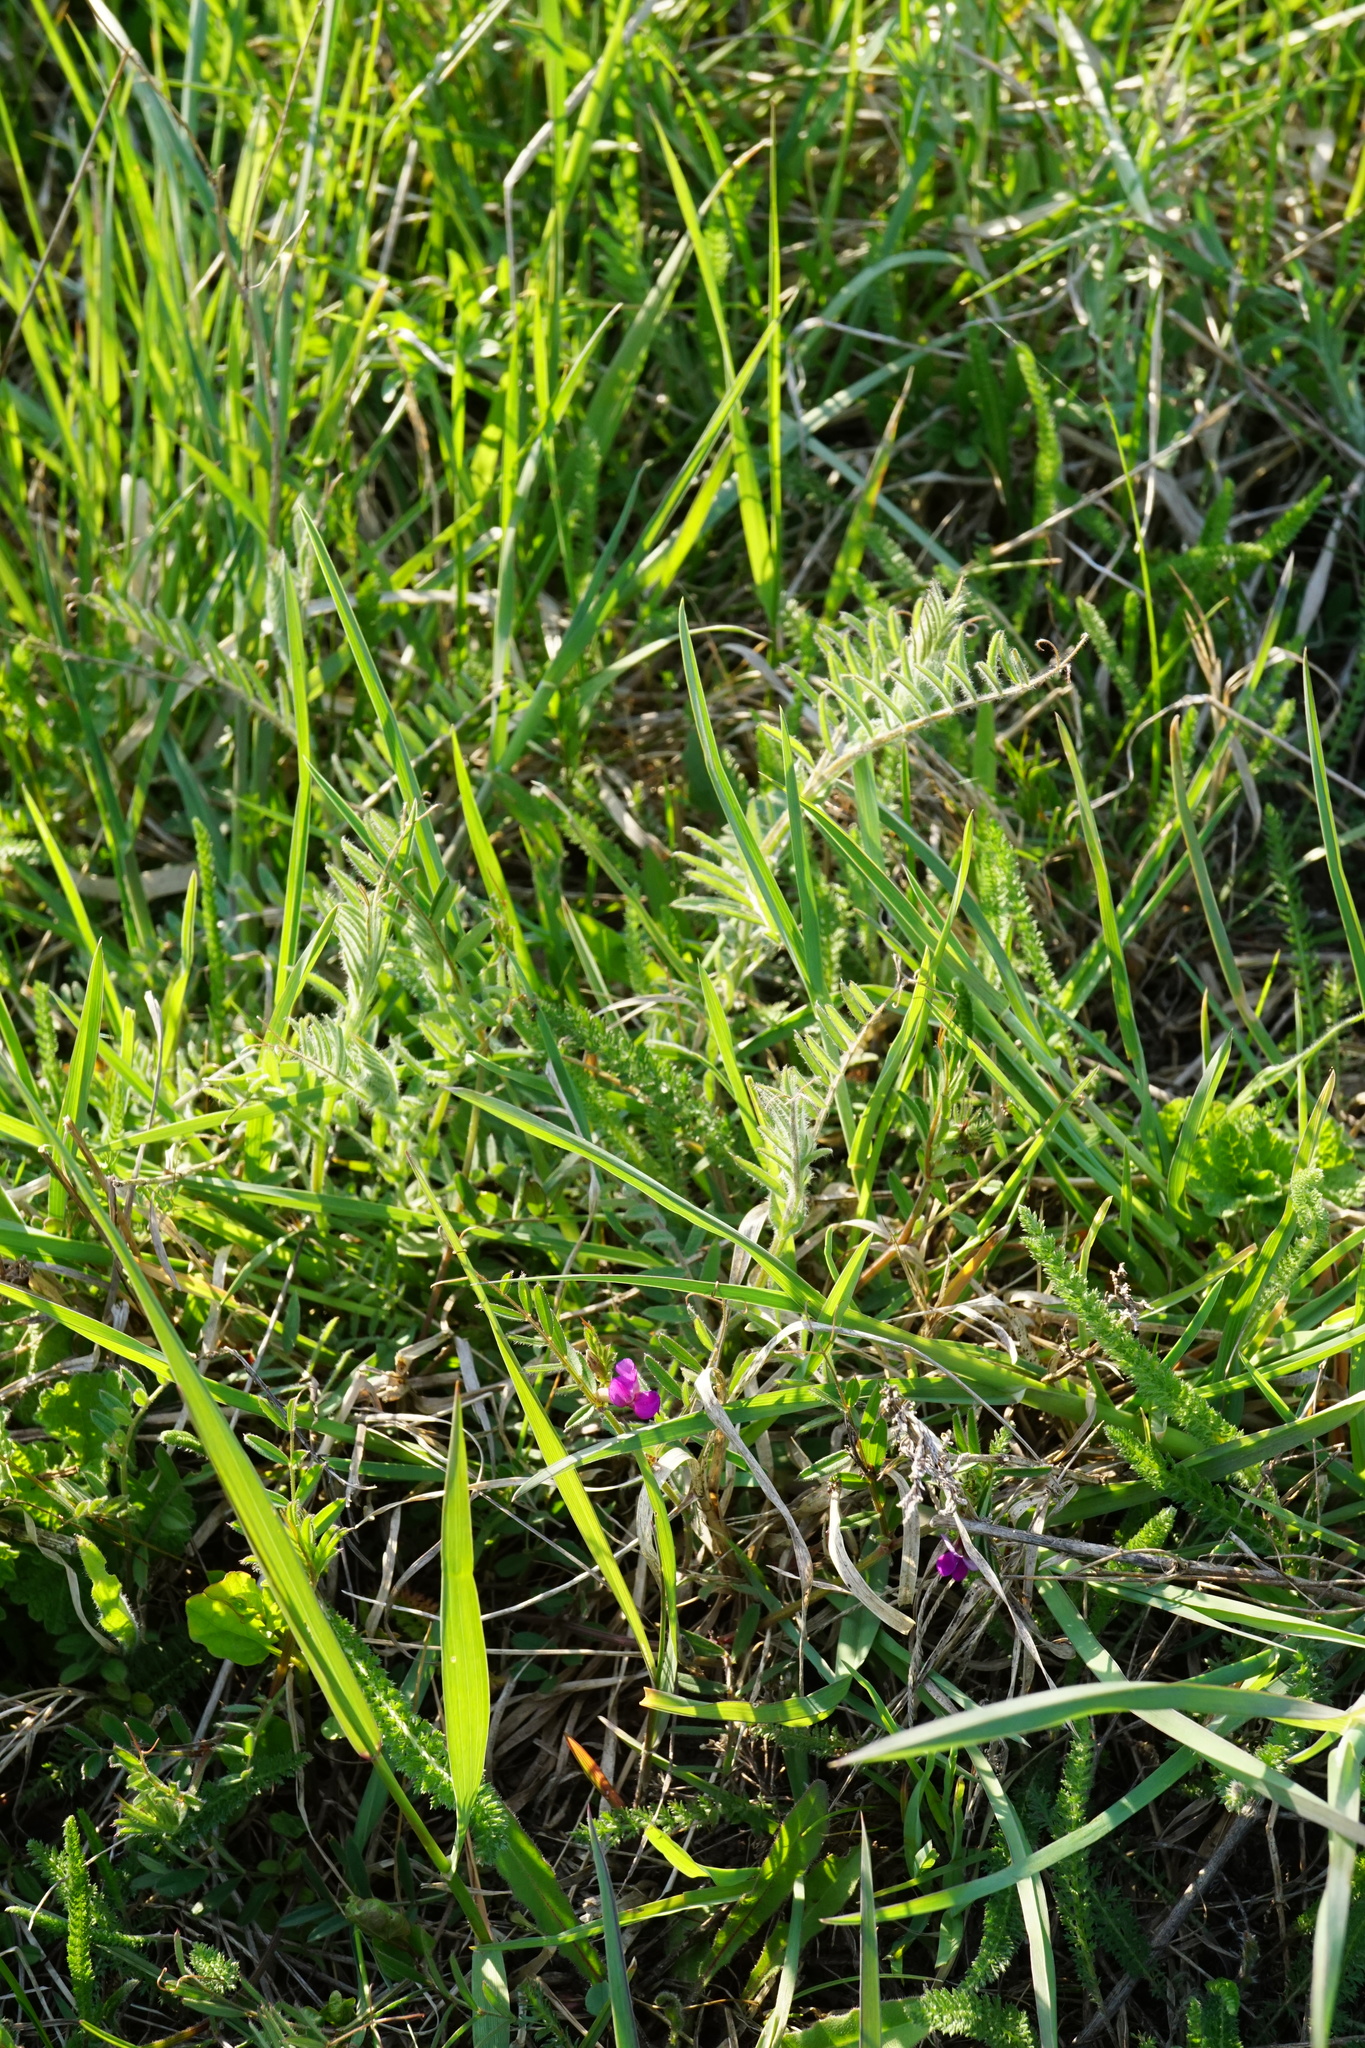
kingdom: Plantae
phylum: Tracheophyta
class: Magnoliopsida
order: Fabales
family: Fabaceae
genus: Vicia
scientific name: Vicia sativa
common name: Garden vetch
